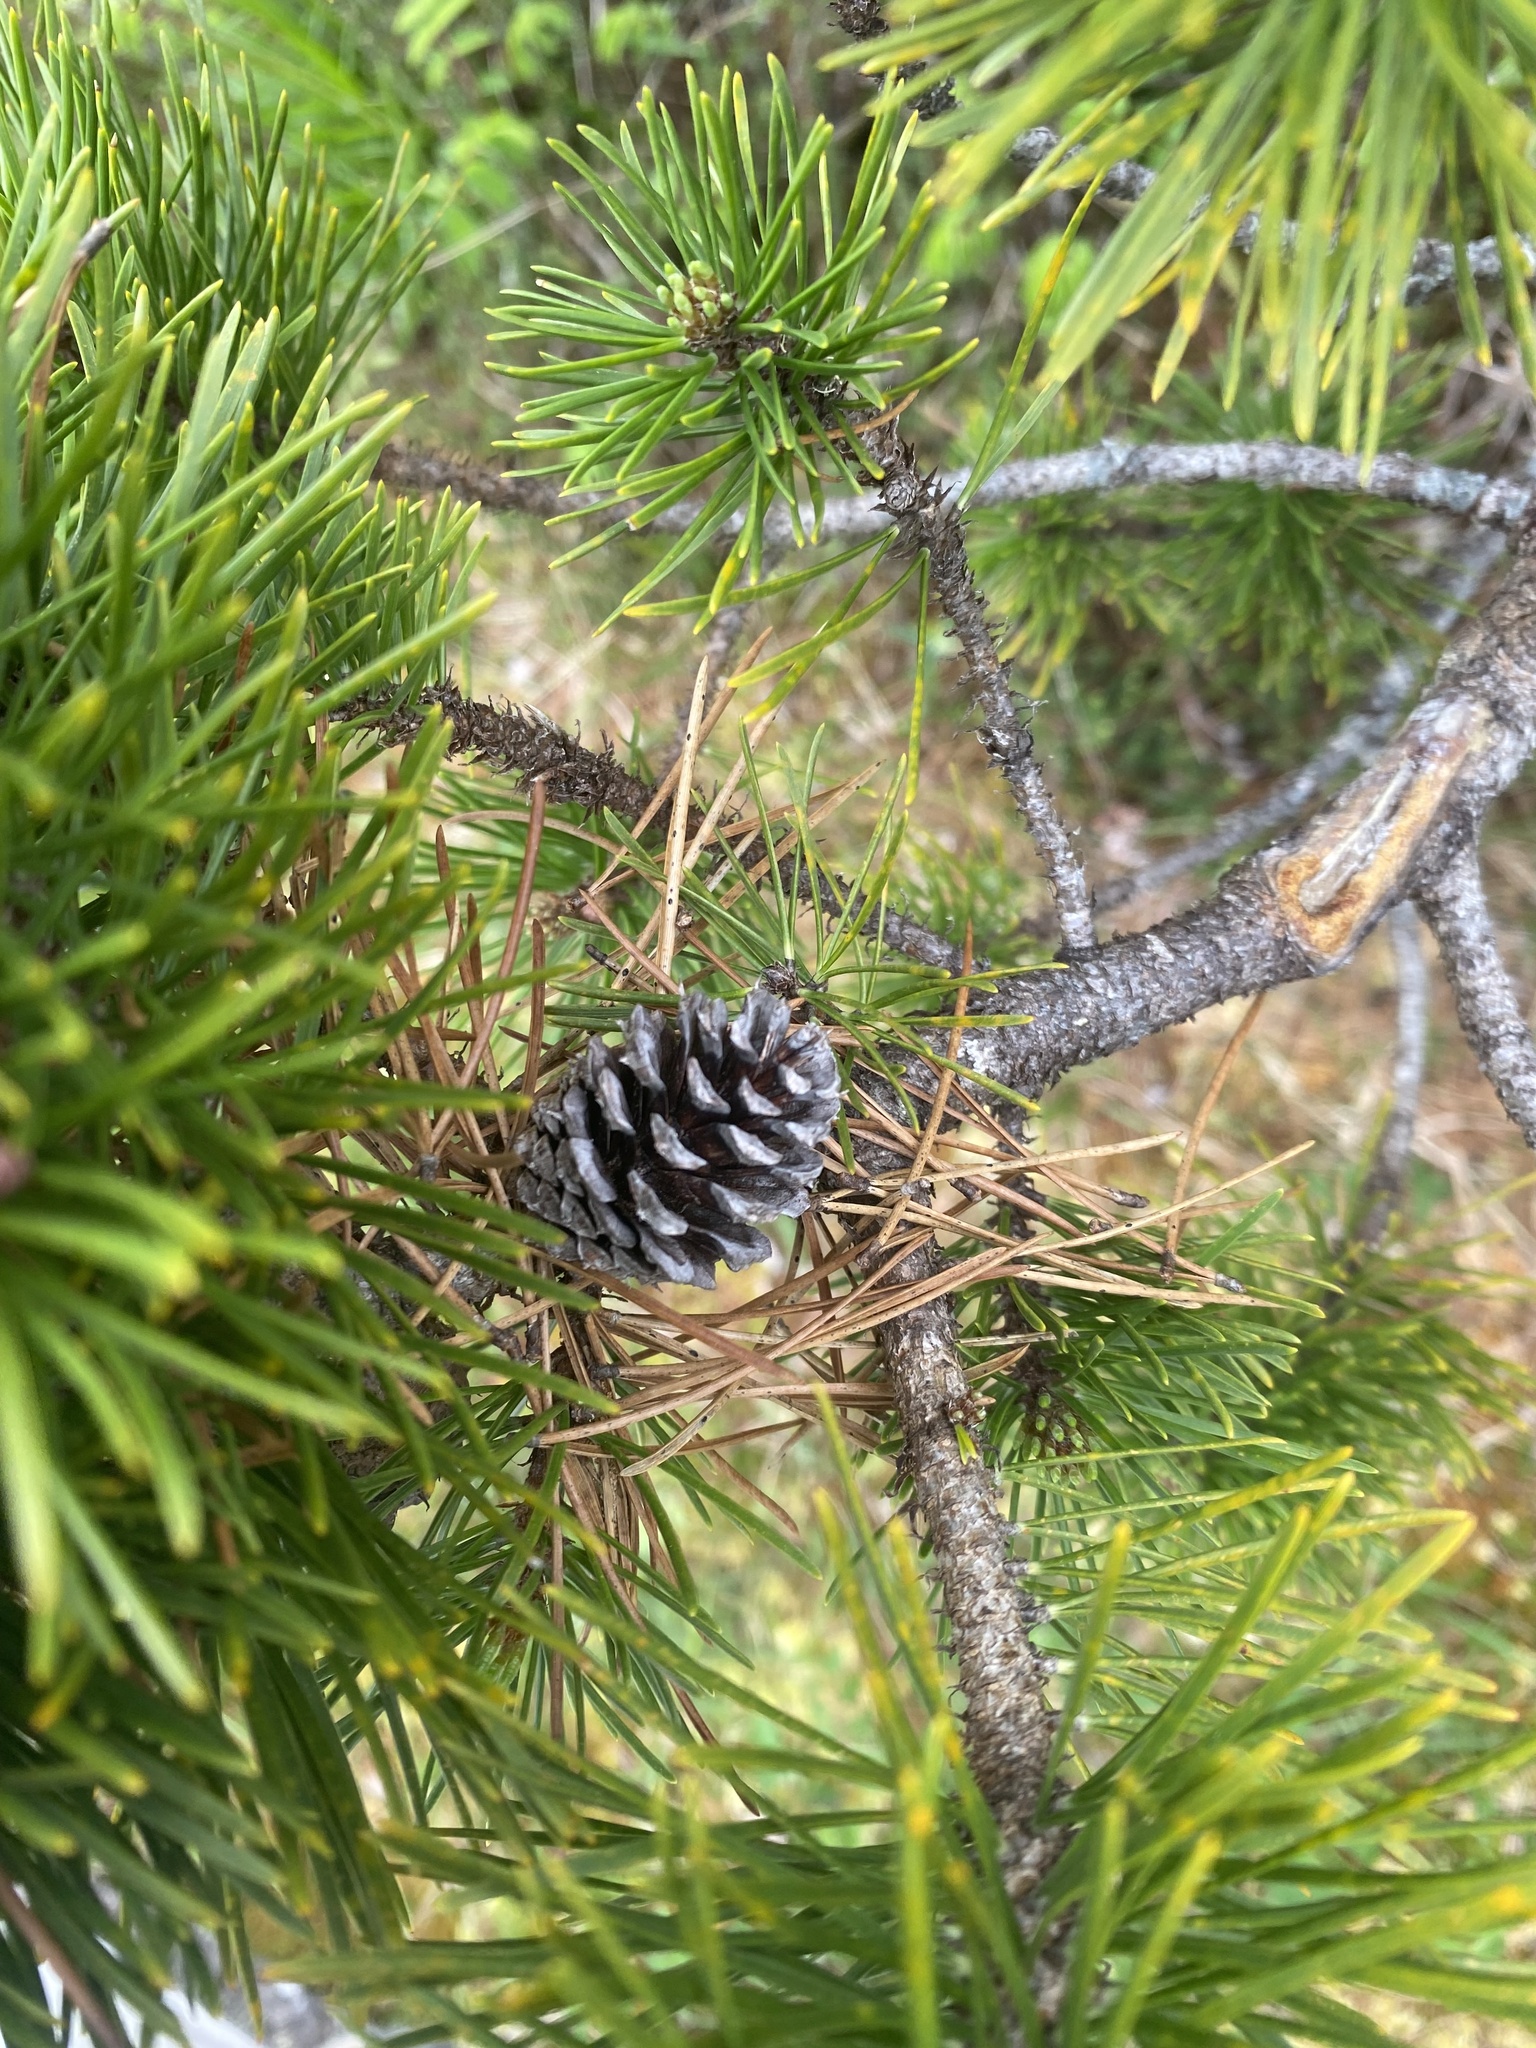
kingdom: Plantae
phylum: Tracheophyta
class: Pinopsida
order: Pinales
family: Pinaceae
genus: Pinus
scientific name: Pinus contorta
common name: Lodgepole pine
